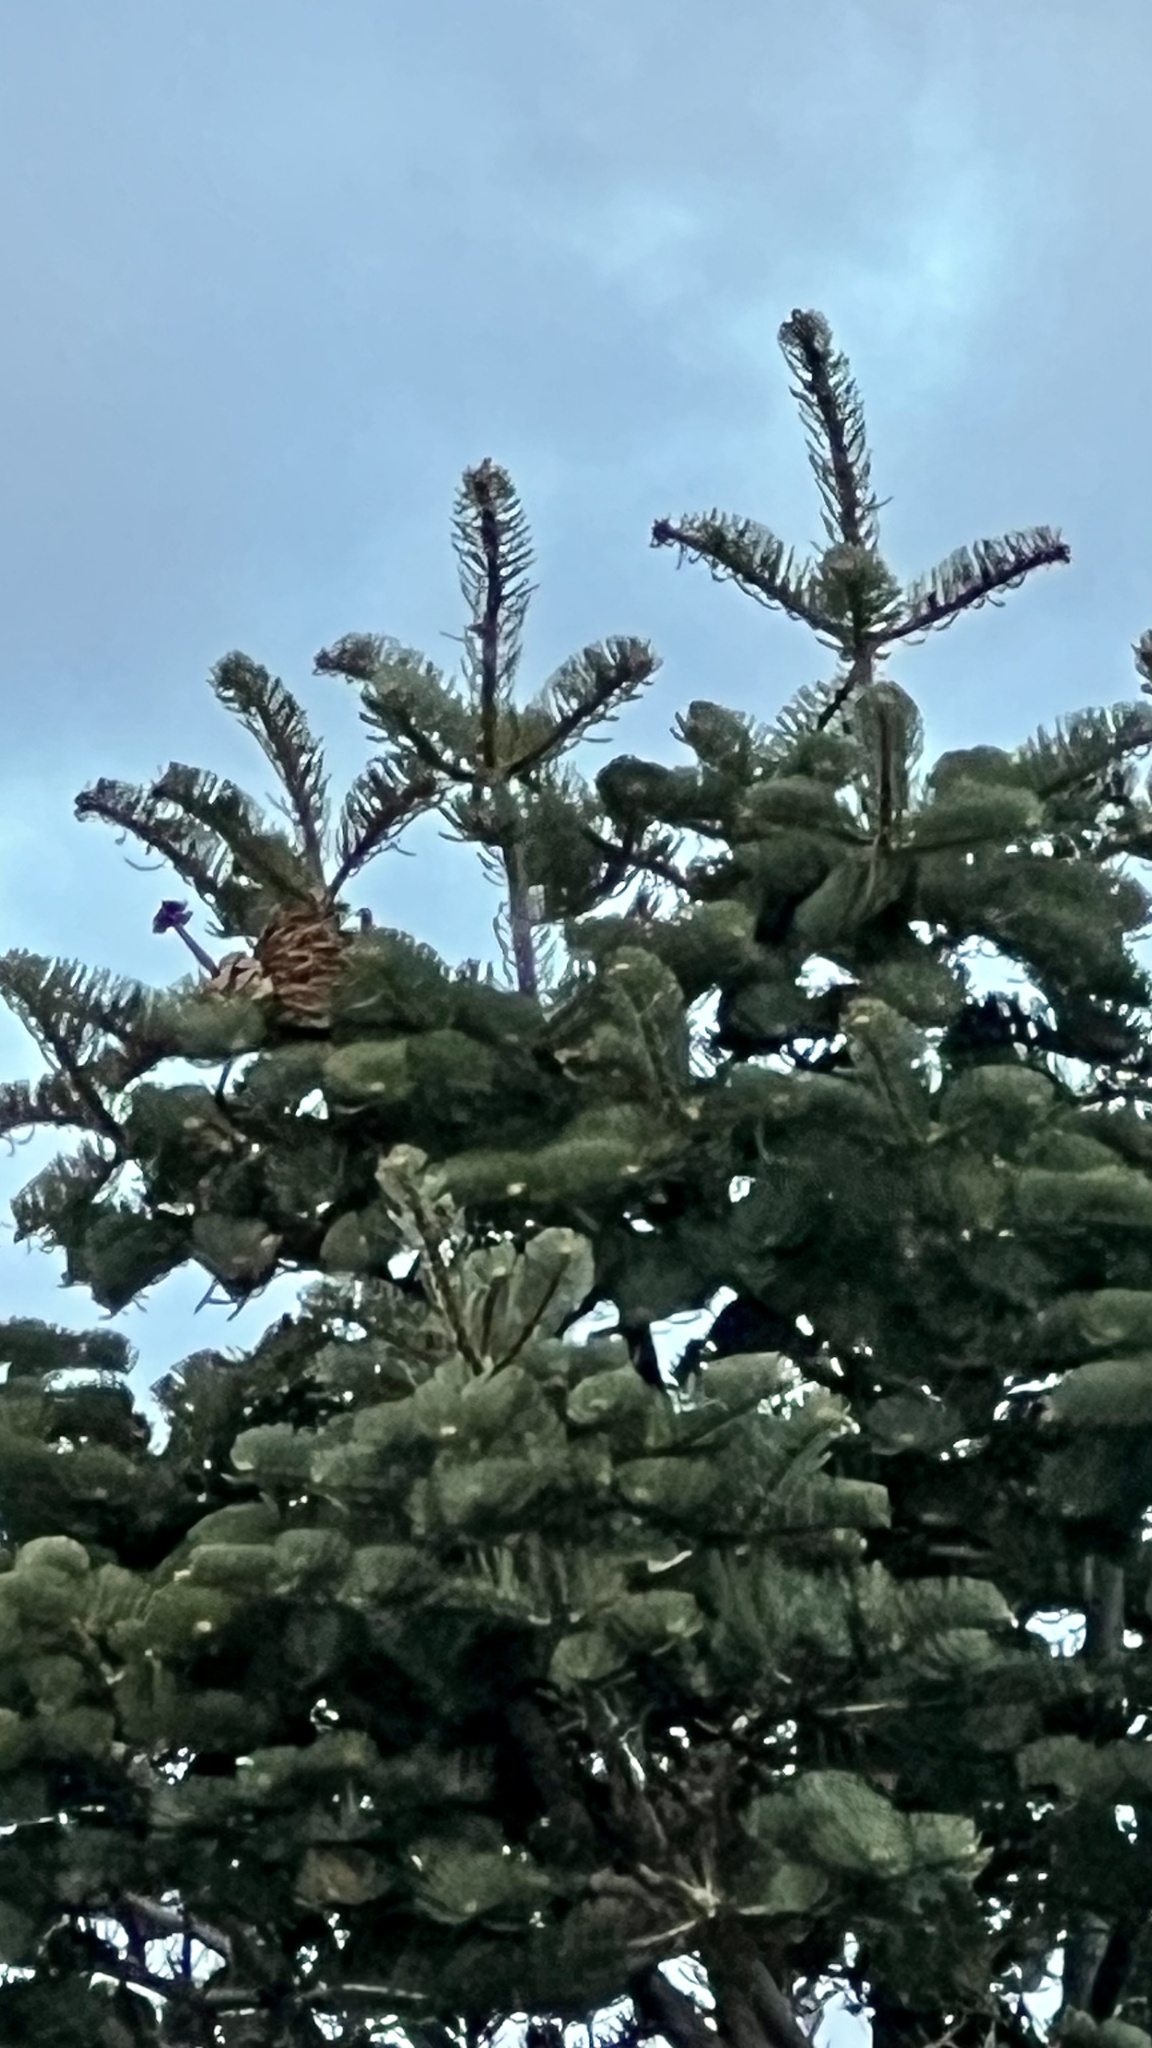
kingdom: Plantae
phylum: Tracheophyta
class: Pinopsida
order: Pinales
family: Pinaceae
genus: Abies
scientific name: Abies concolor
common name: Colorado fir
